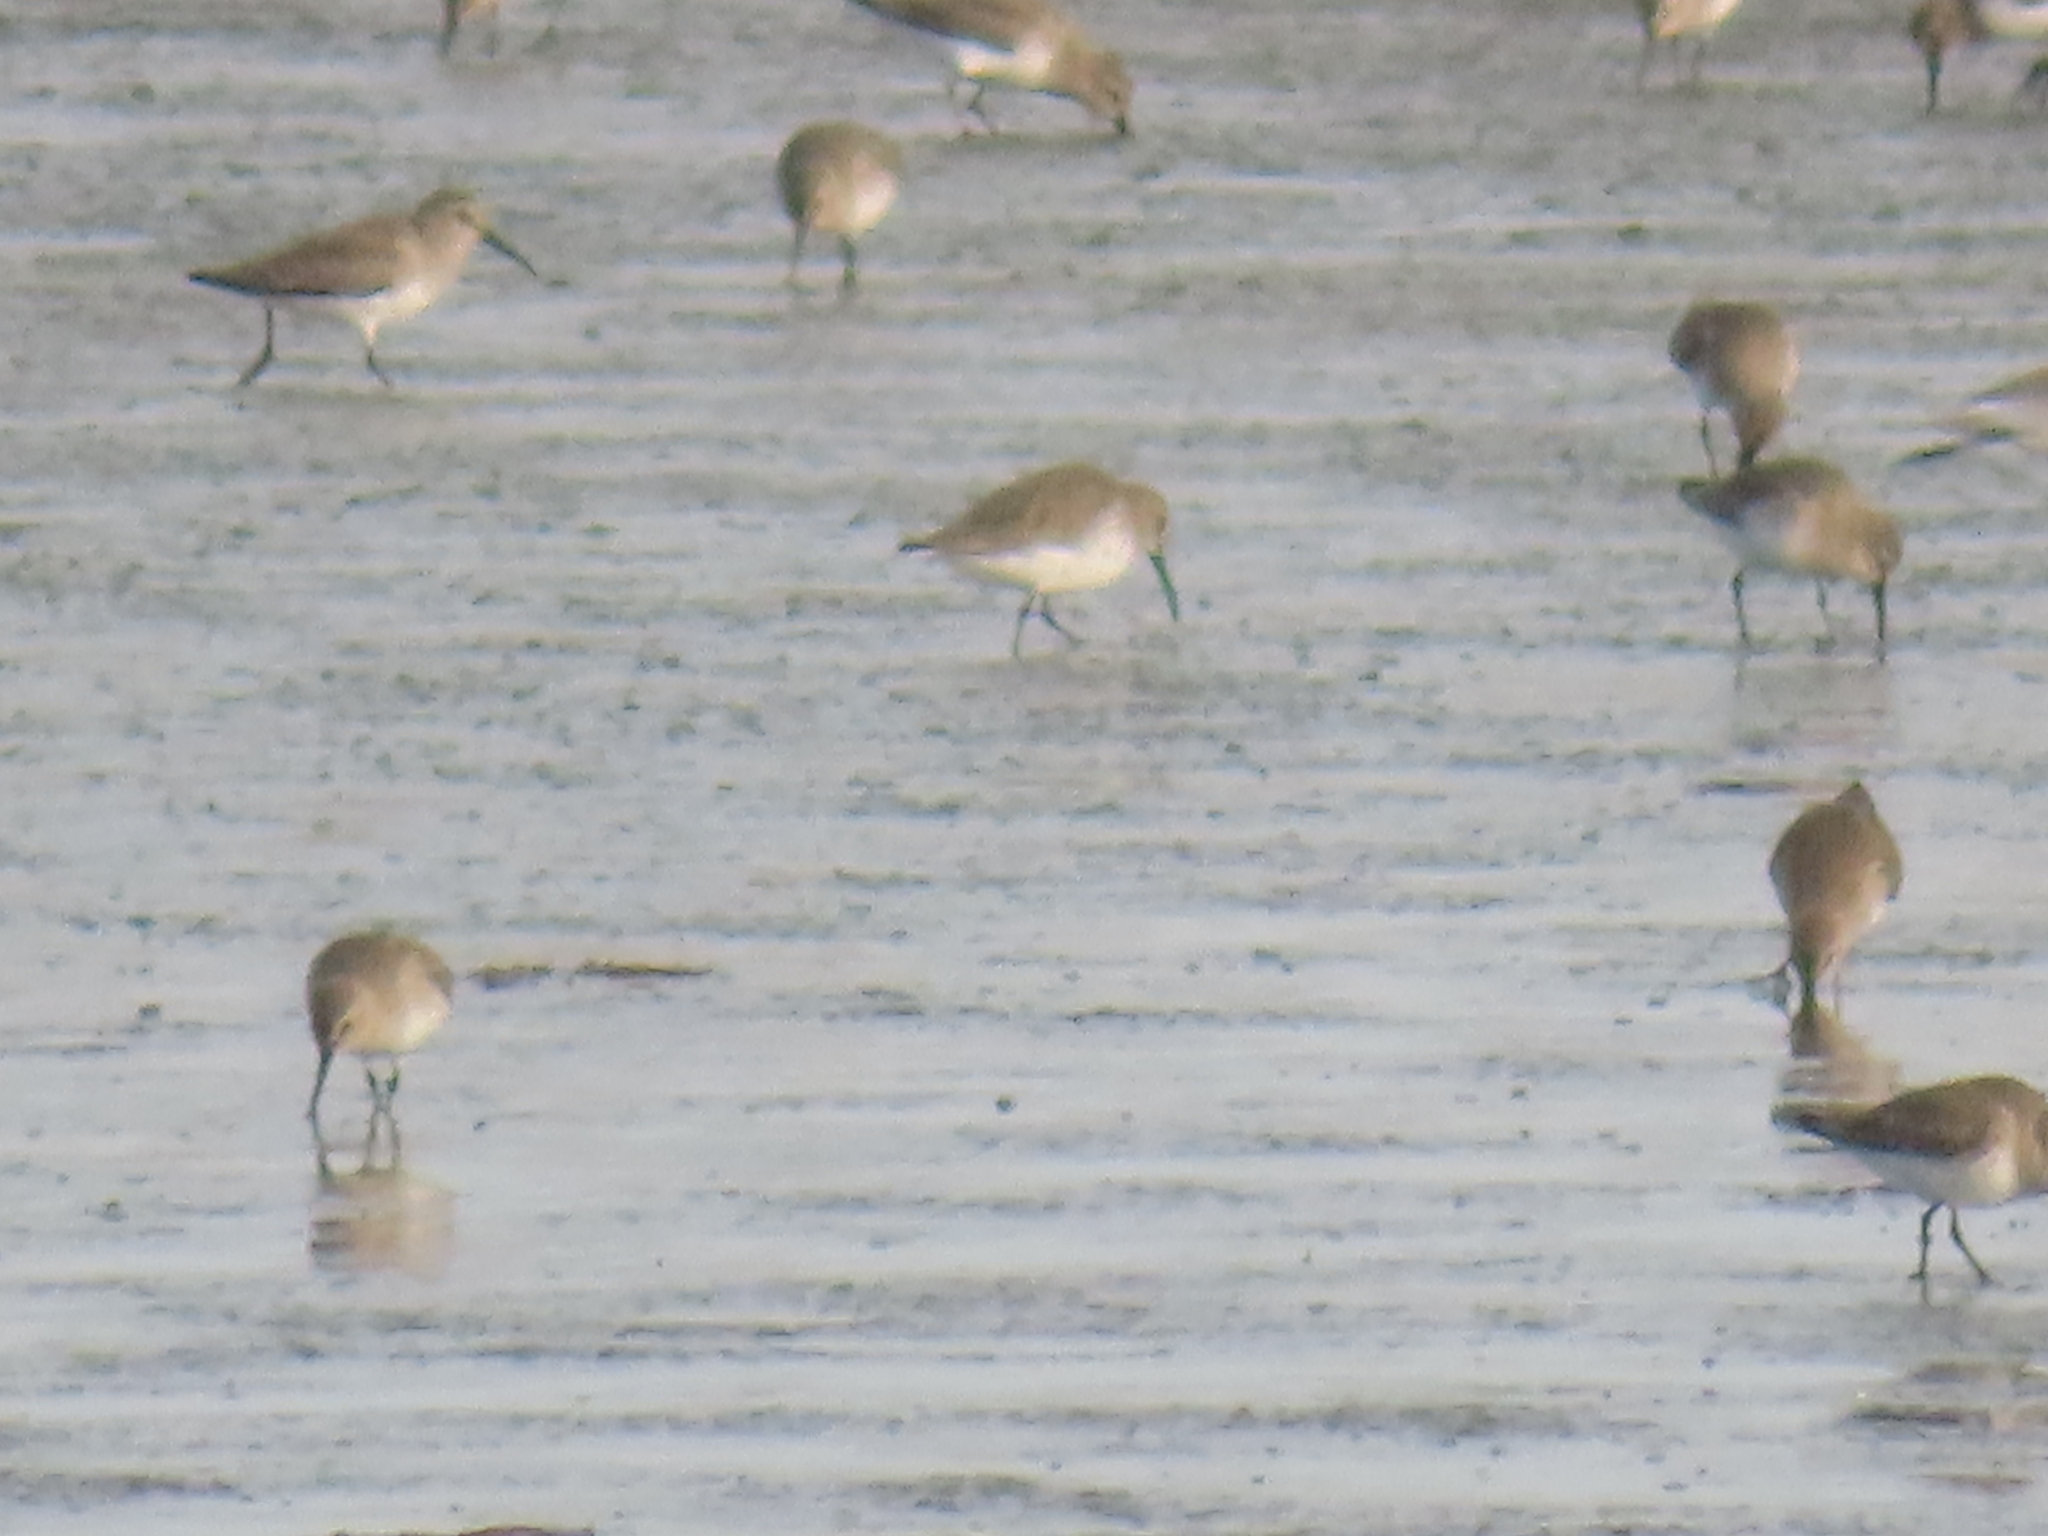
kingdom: Animalia
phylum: Chordata
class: Aves
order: Charadriiformes
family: Scolopacidae
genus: Calidris
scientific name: Calidris alpina
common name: Dunlin
